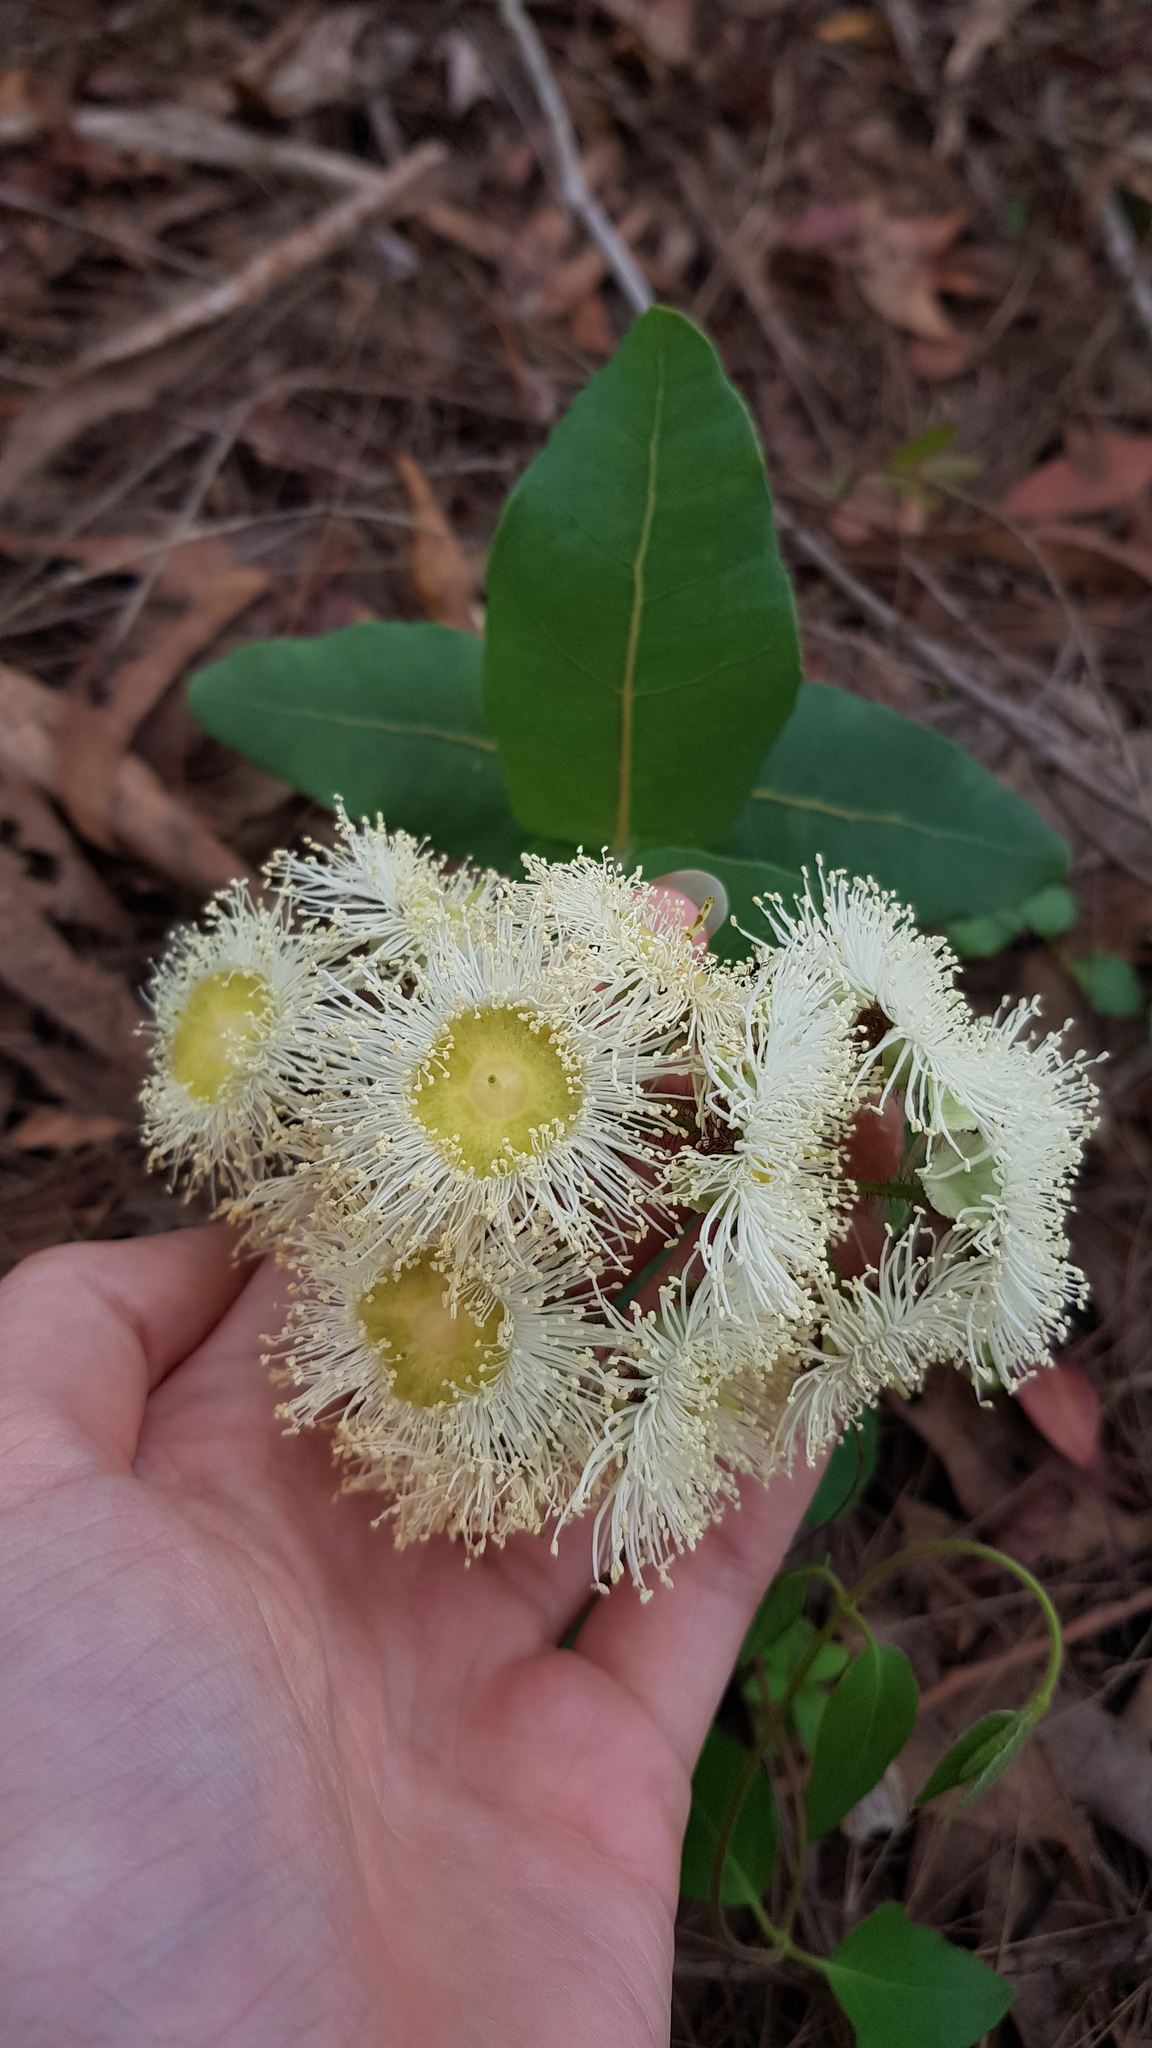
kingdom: Plantae
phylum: Tracheophyta
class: Magnoliopsida
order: Myrtales
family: Myrtaceae
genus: Angophora
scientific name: Angophora hispida
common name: Dwarf-apple
